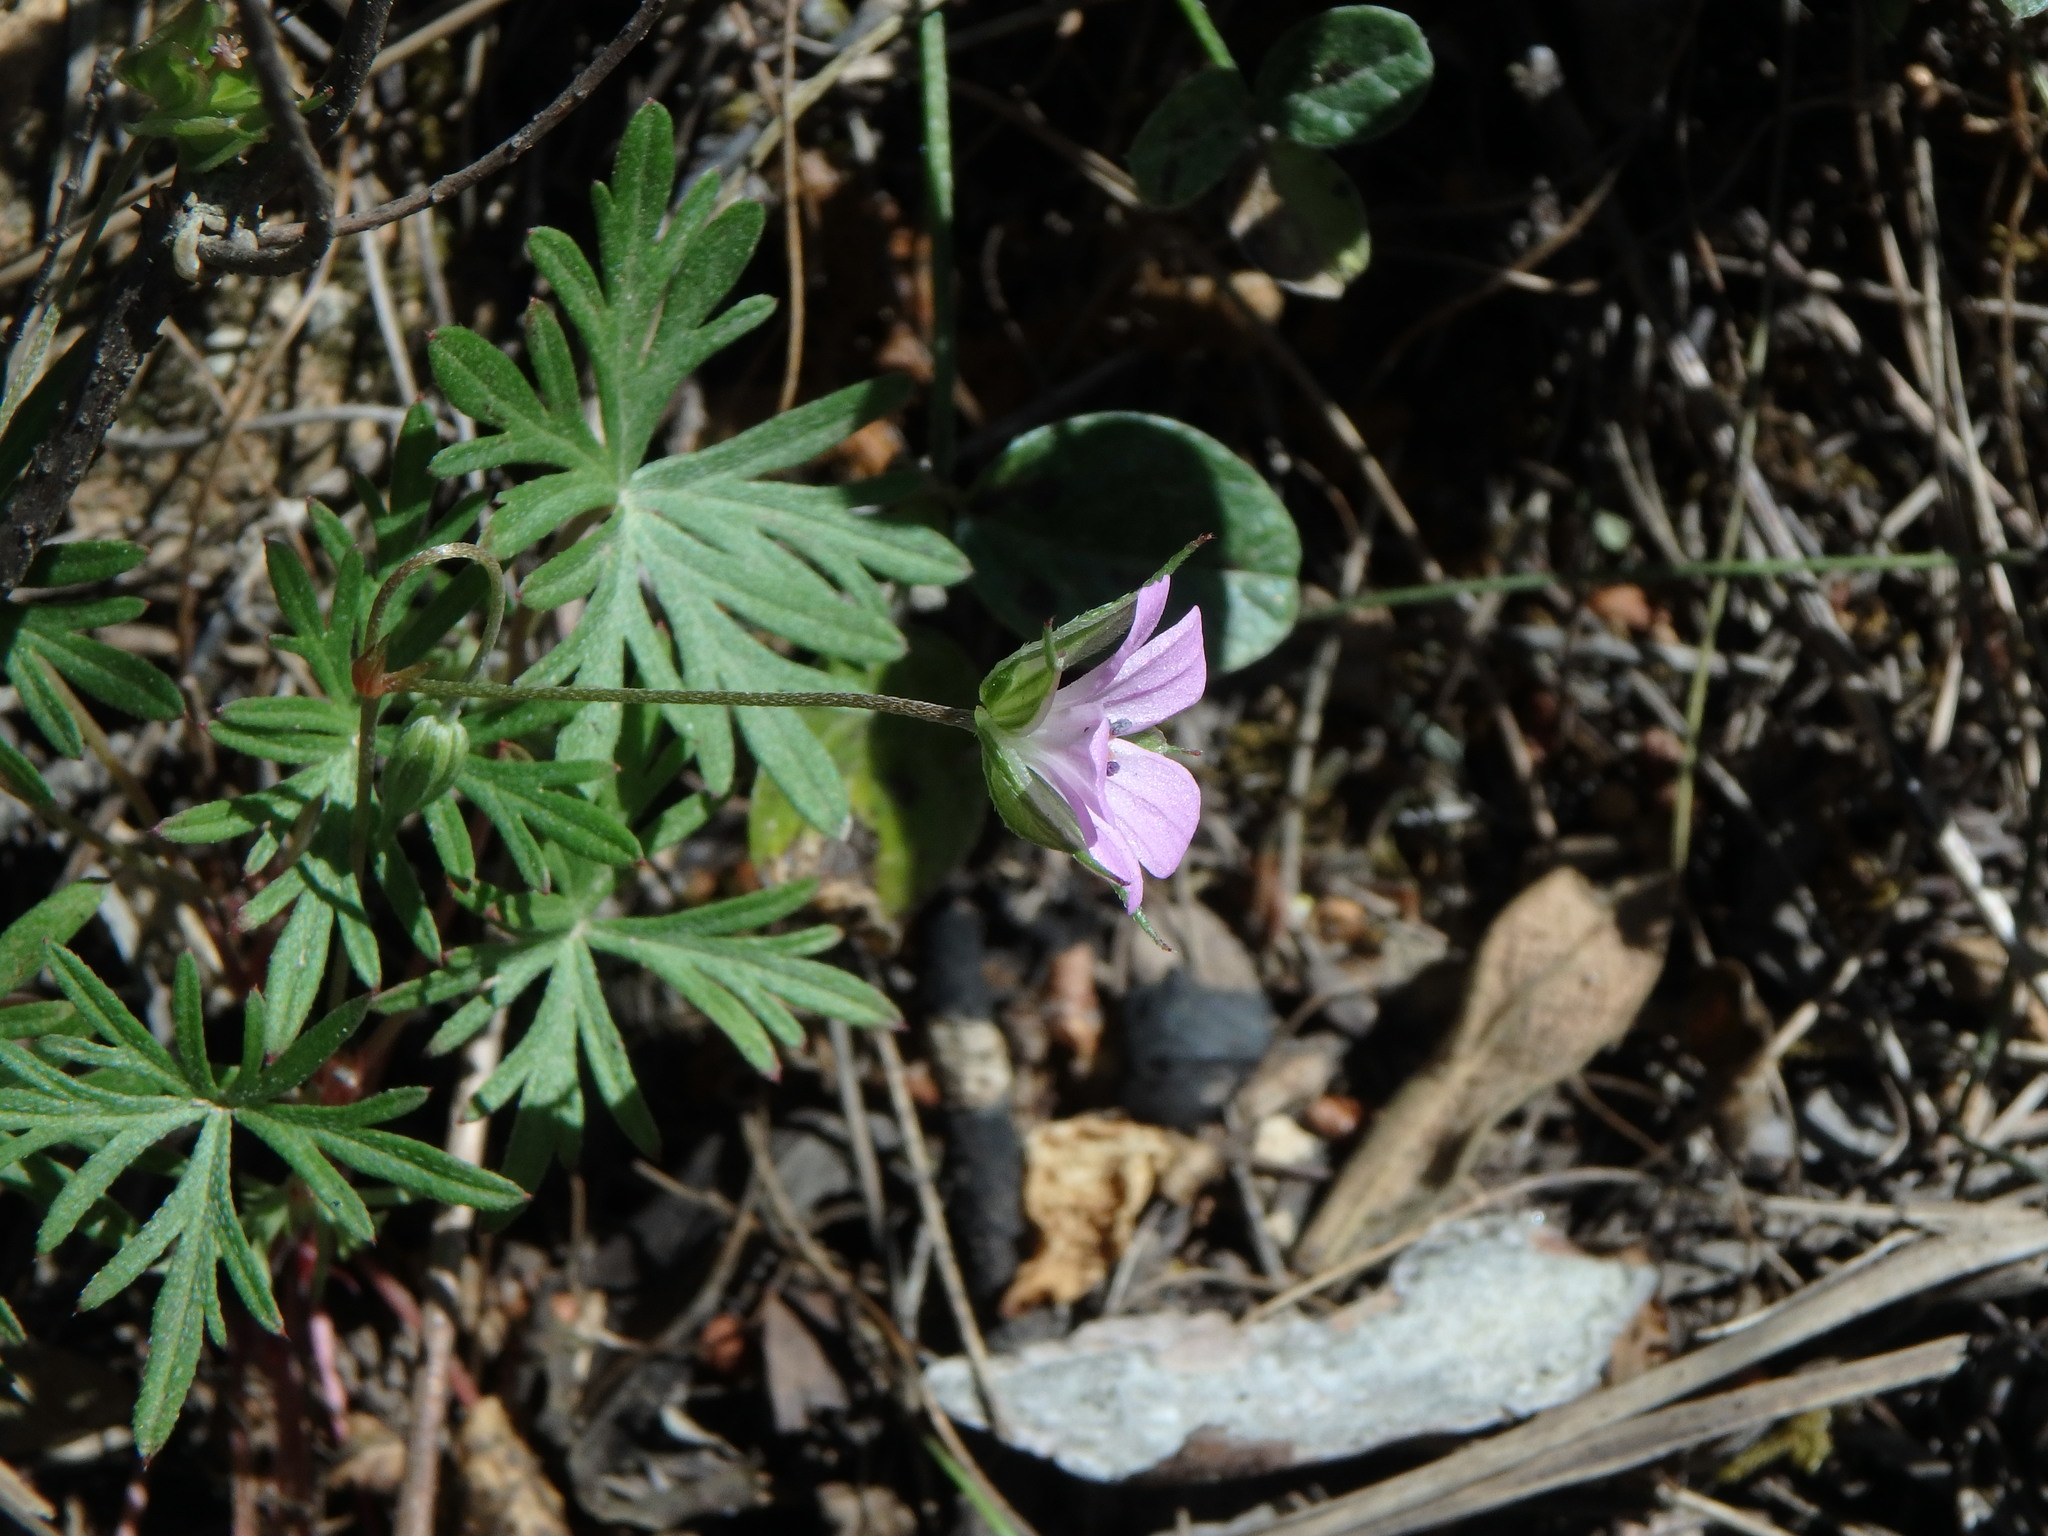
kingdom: Plantae
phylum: Tracheophyta
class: Magnoliopsida
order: Geraniales
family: Geraniaceae
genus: Geranium
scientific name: Geranium columbinum
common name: Long-stalked crane's-bill
